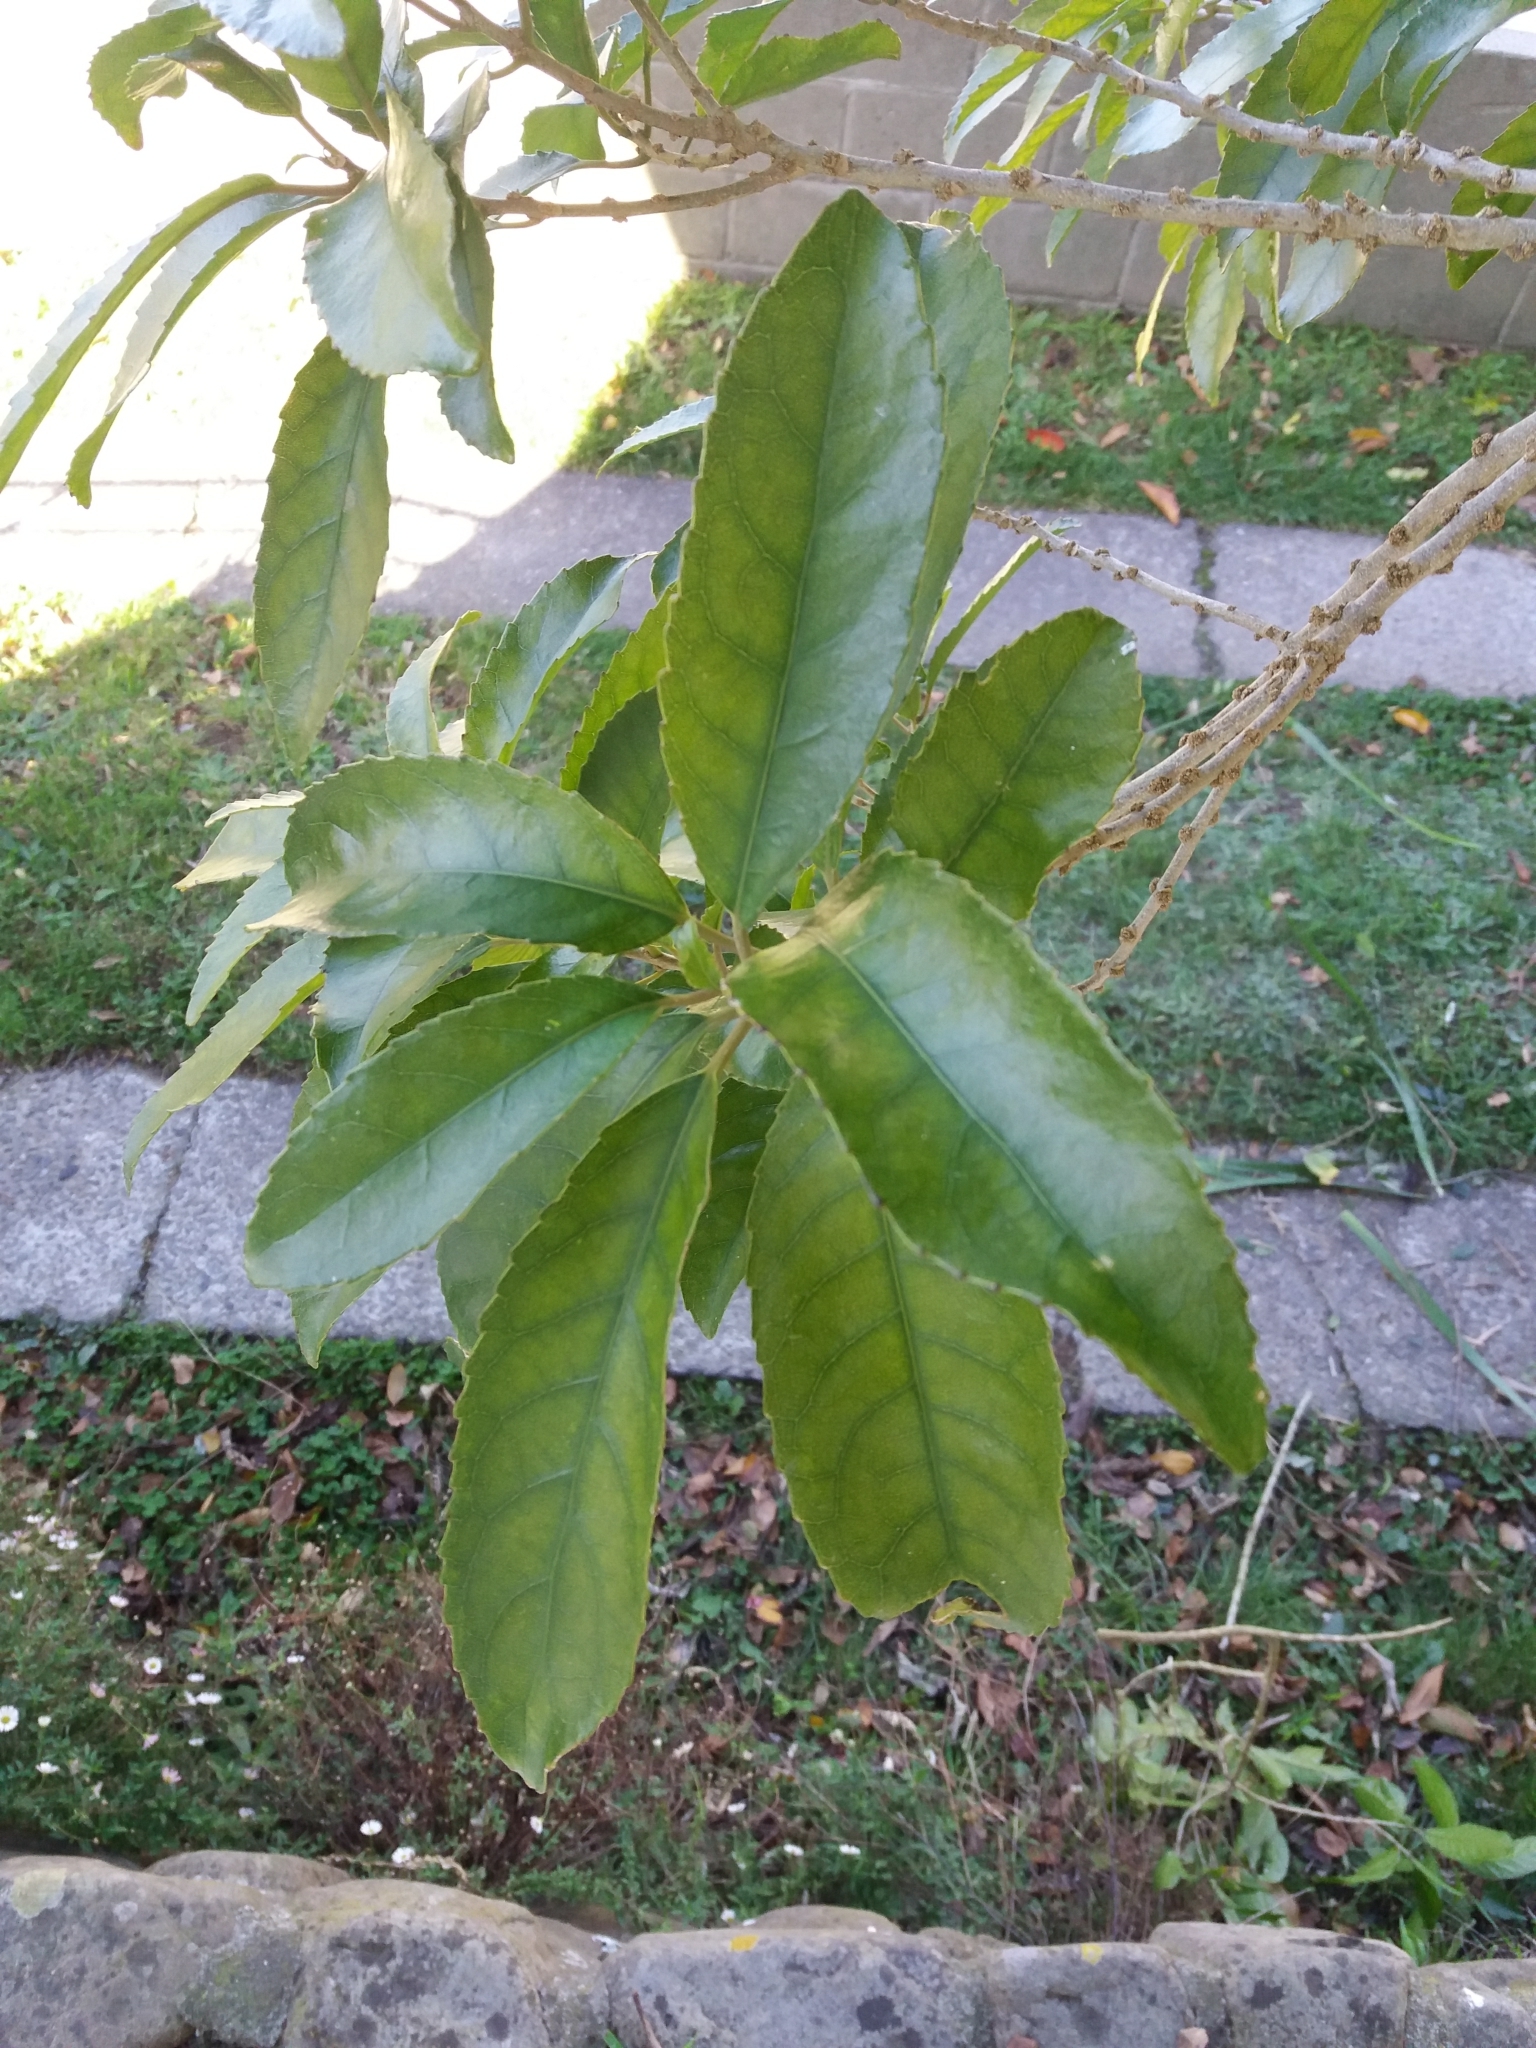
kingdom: Plantae
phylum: Tracheophyta
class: Magnoliopsida
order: Malpighiales
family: Violaceae
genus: Melicytus
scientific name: Melicytus ramiflorus
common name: Mahoe
